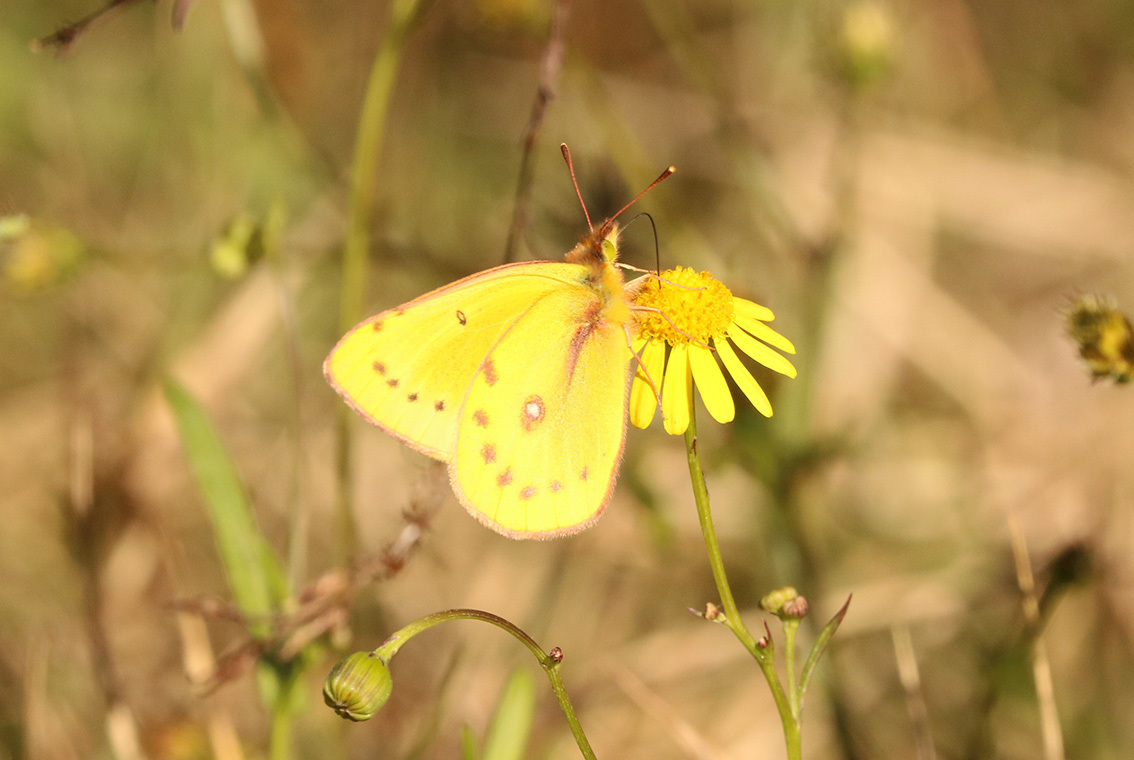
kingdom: Animalia
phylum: Arthropoda
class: Insecta
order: Lepidoptera
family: Pieridae
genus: Colias
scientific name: Colias lesbia
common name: Lesbia clouded yellow
